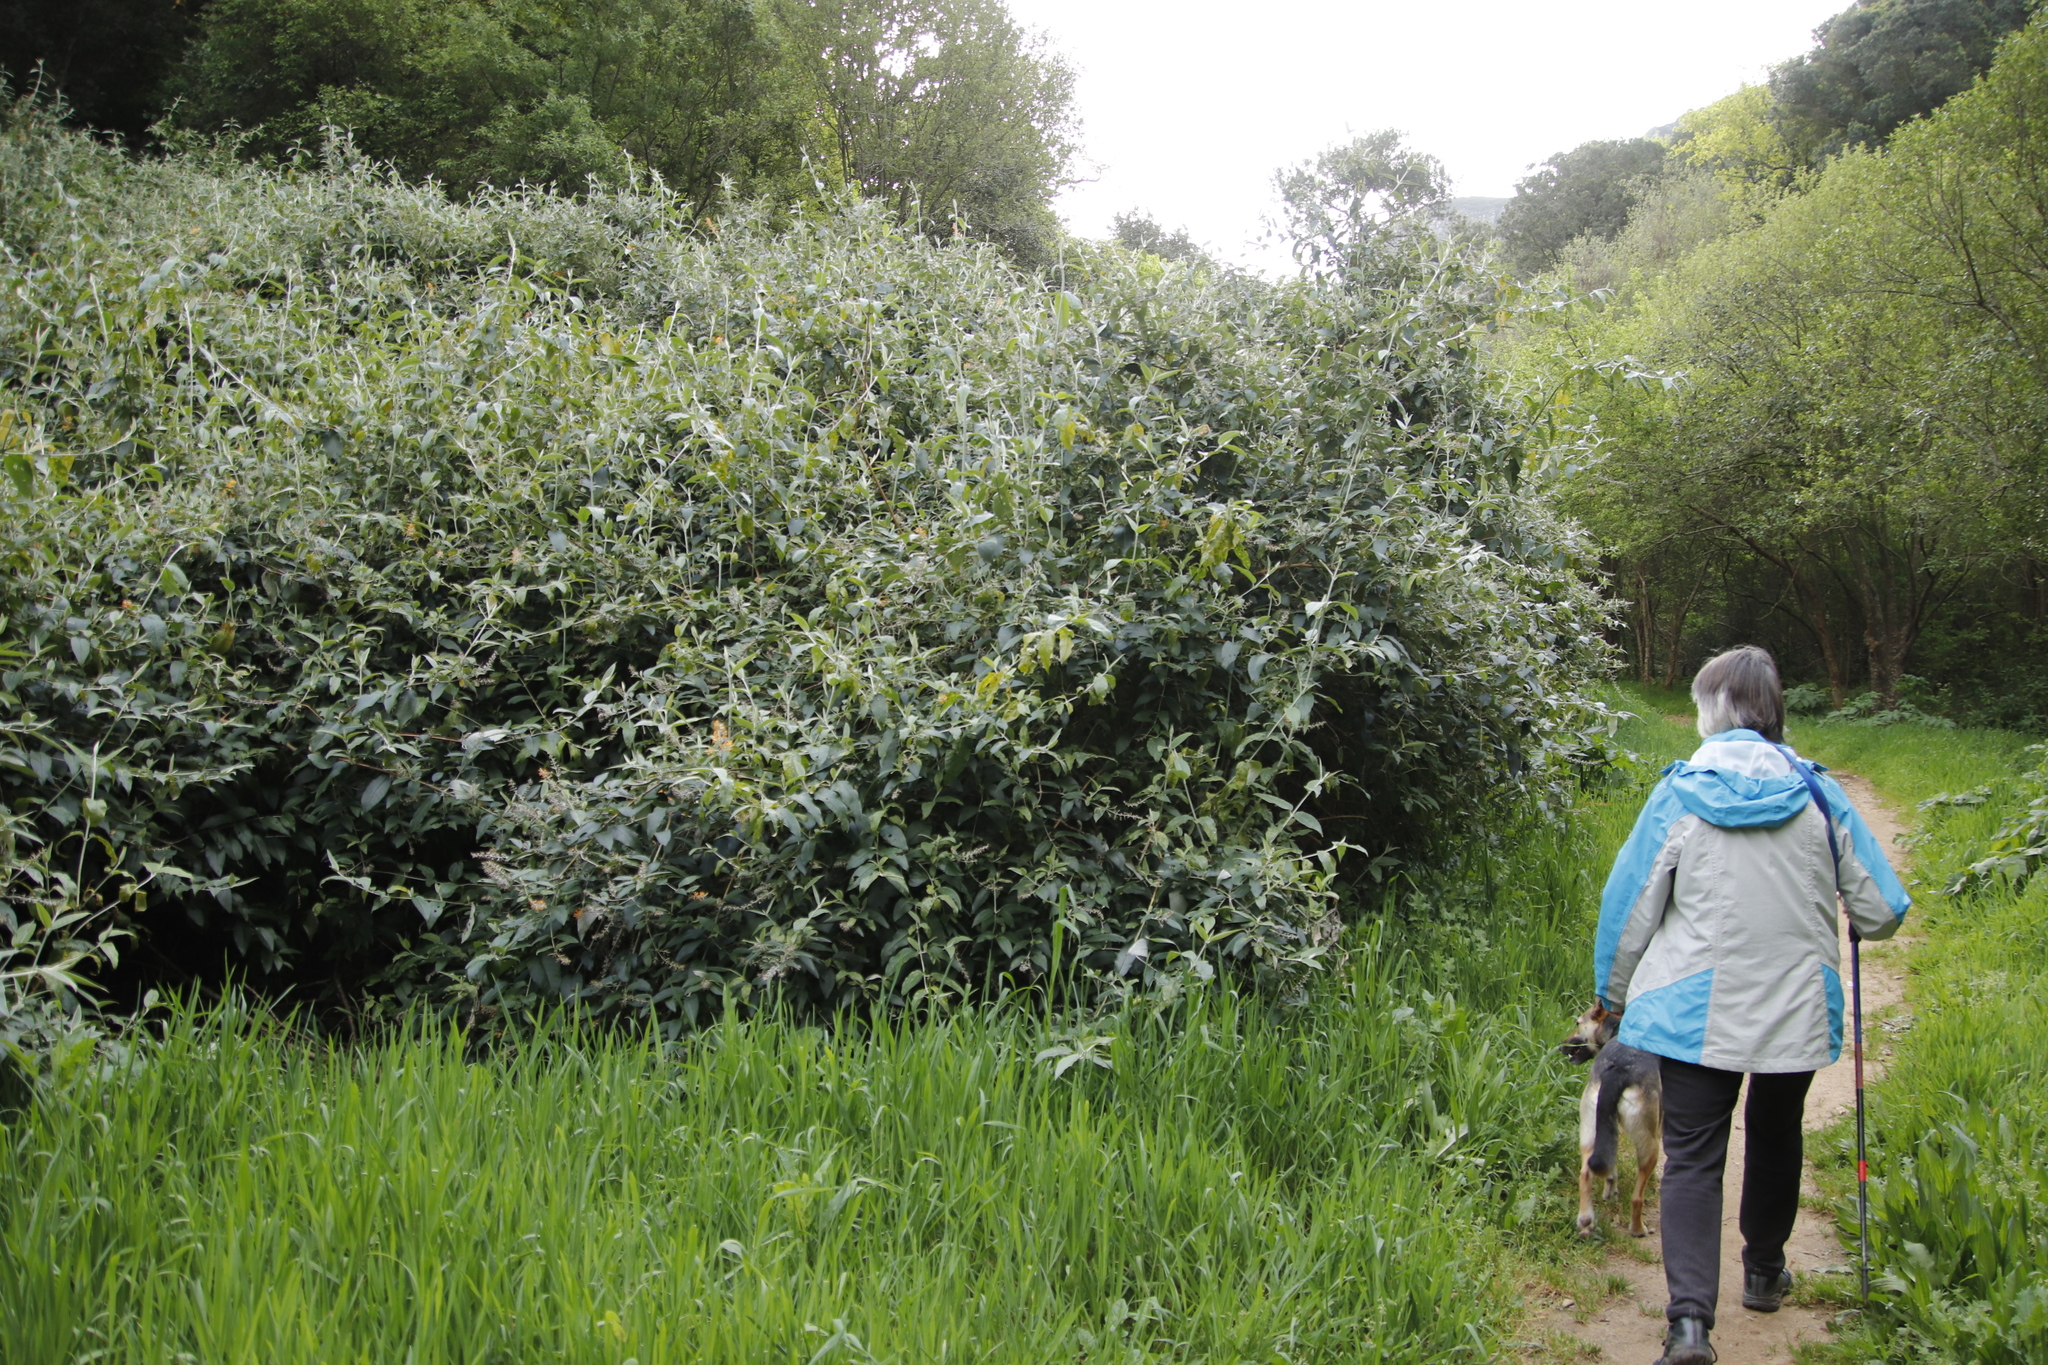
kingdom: Plantae
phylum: Tracheophyta
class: Magnoliopsida
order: Lamiales
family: Scrophulariaceae
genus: Buddleja
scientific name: Buddleja madagascariensis
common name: Smokebush
